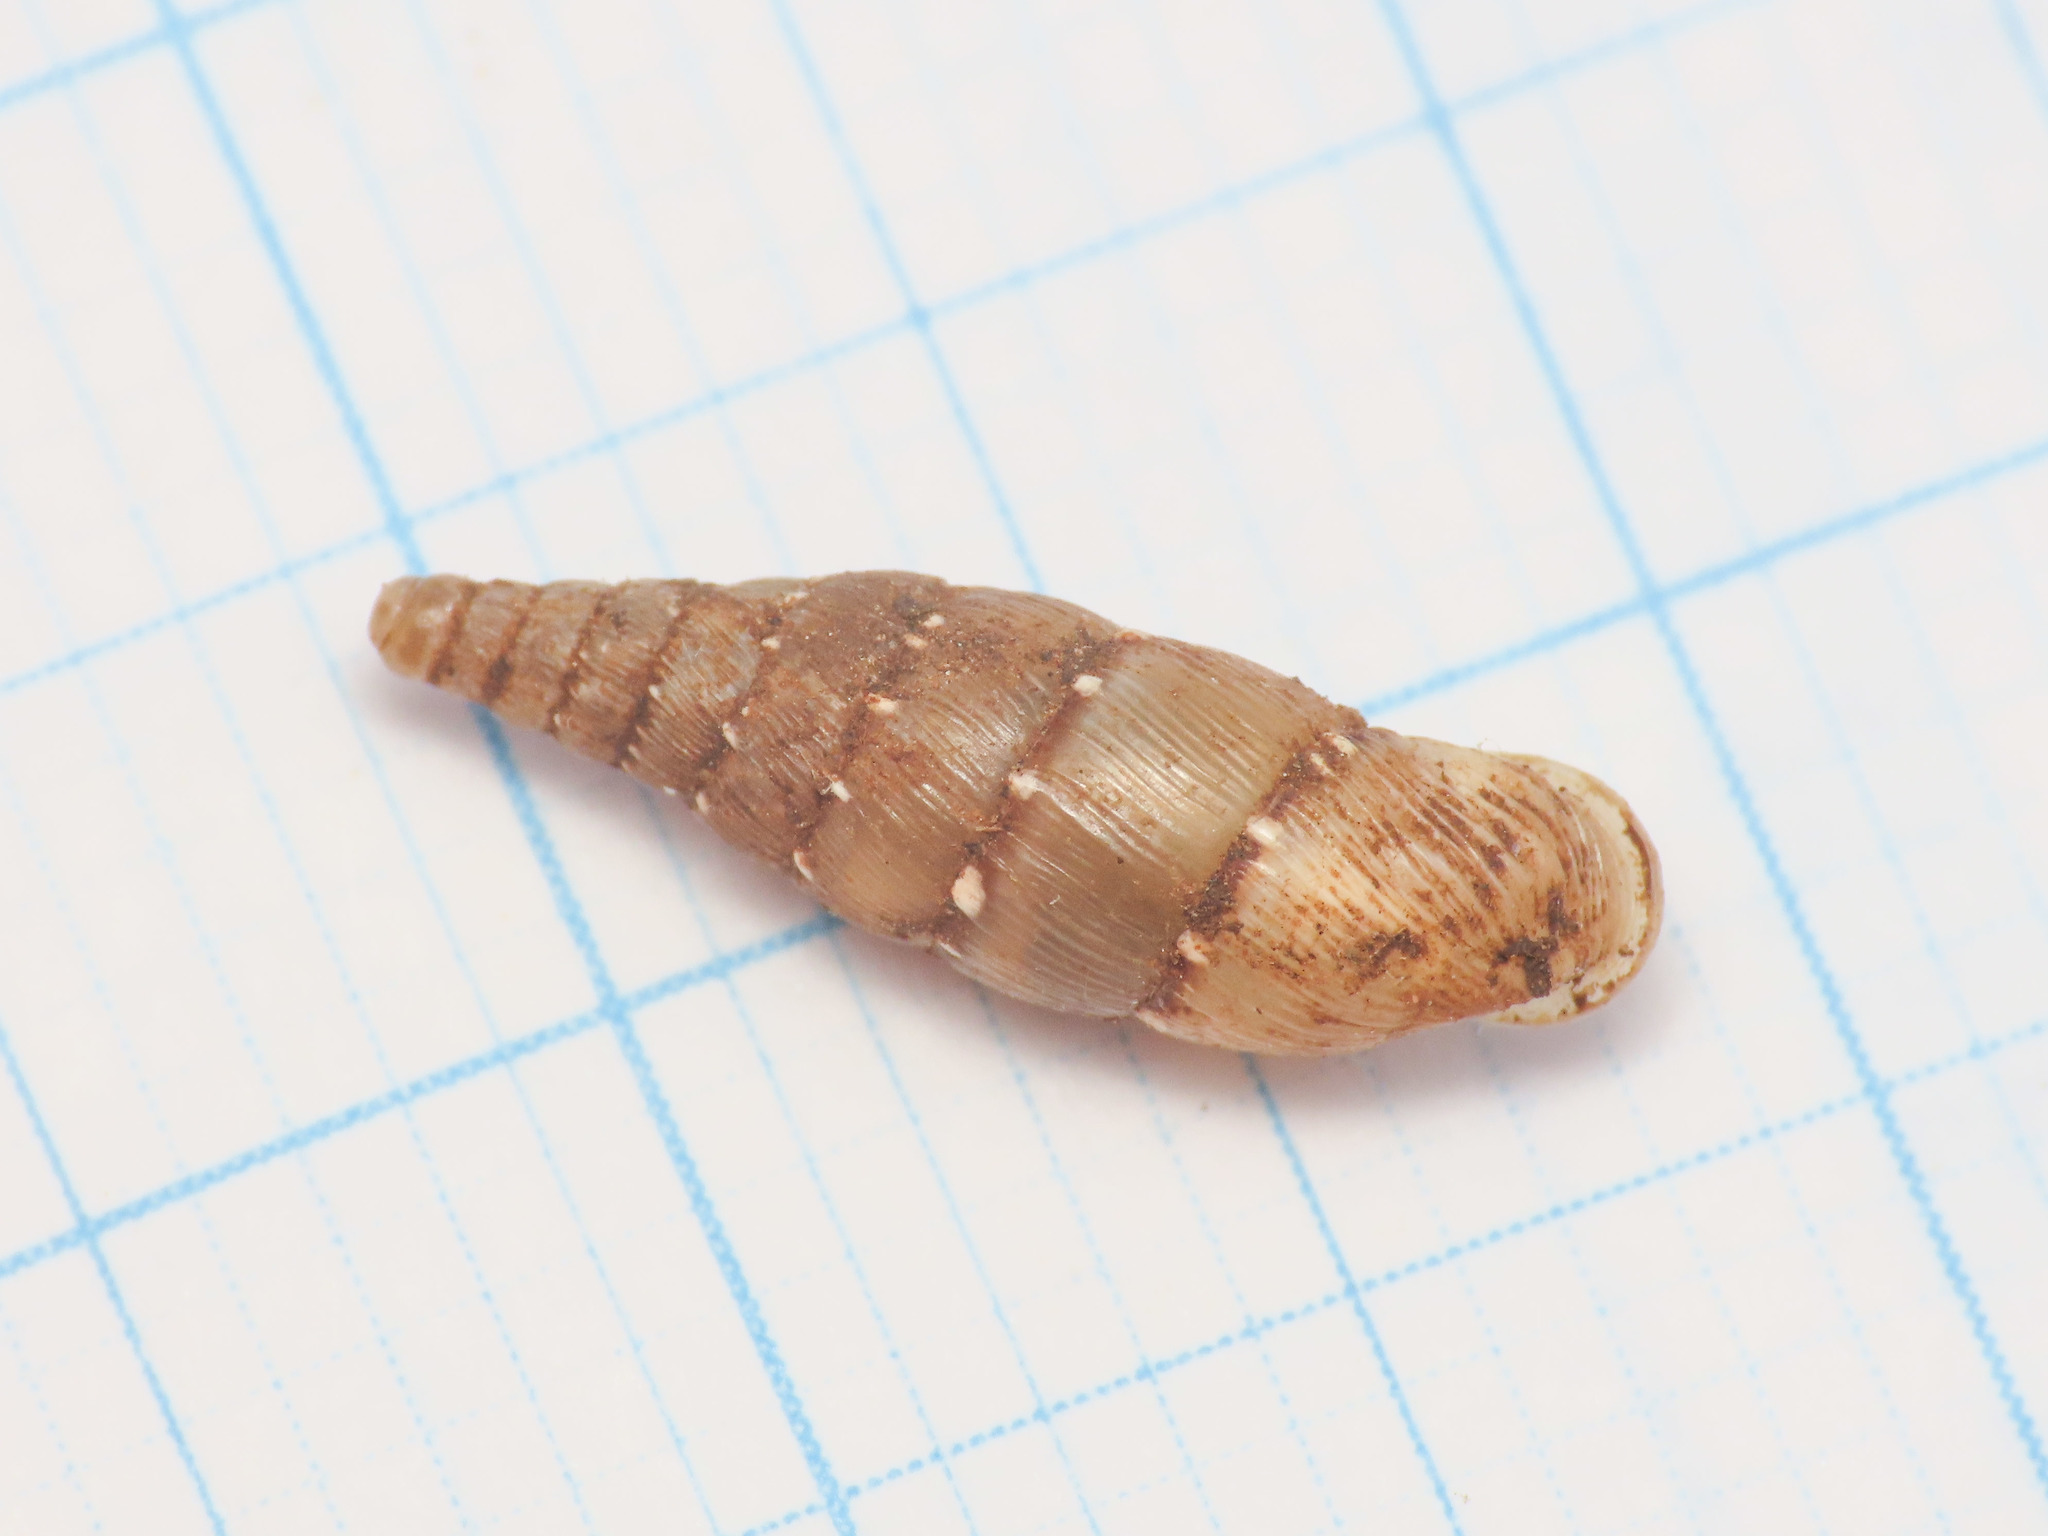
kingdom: Animalia
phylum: Mollusca
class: Gastropoda
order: Stylommatophora
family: Clausiliidae
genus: Papillifera
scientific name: Papillifera papillaris
